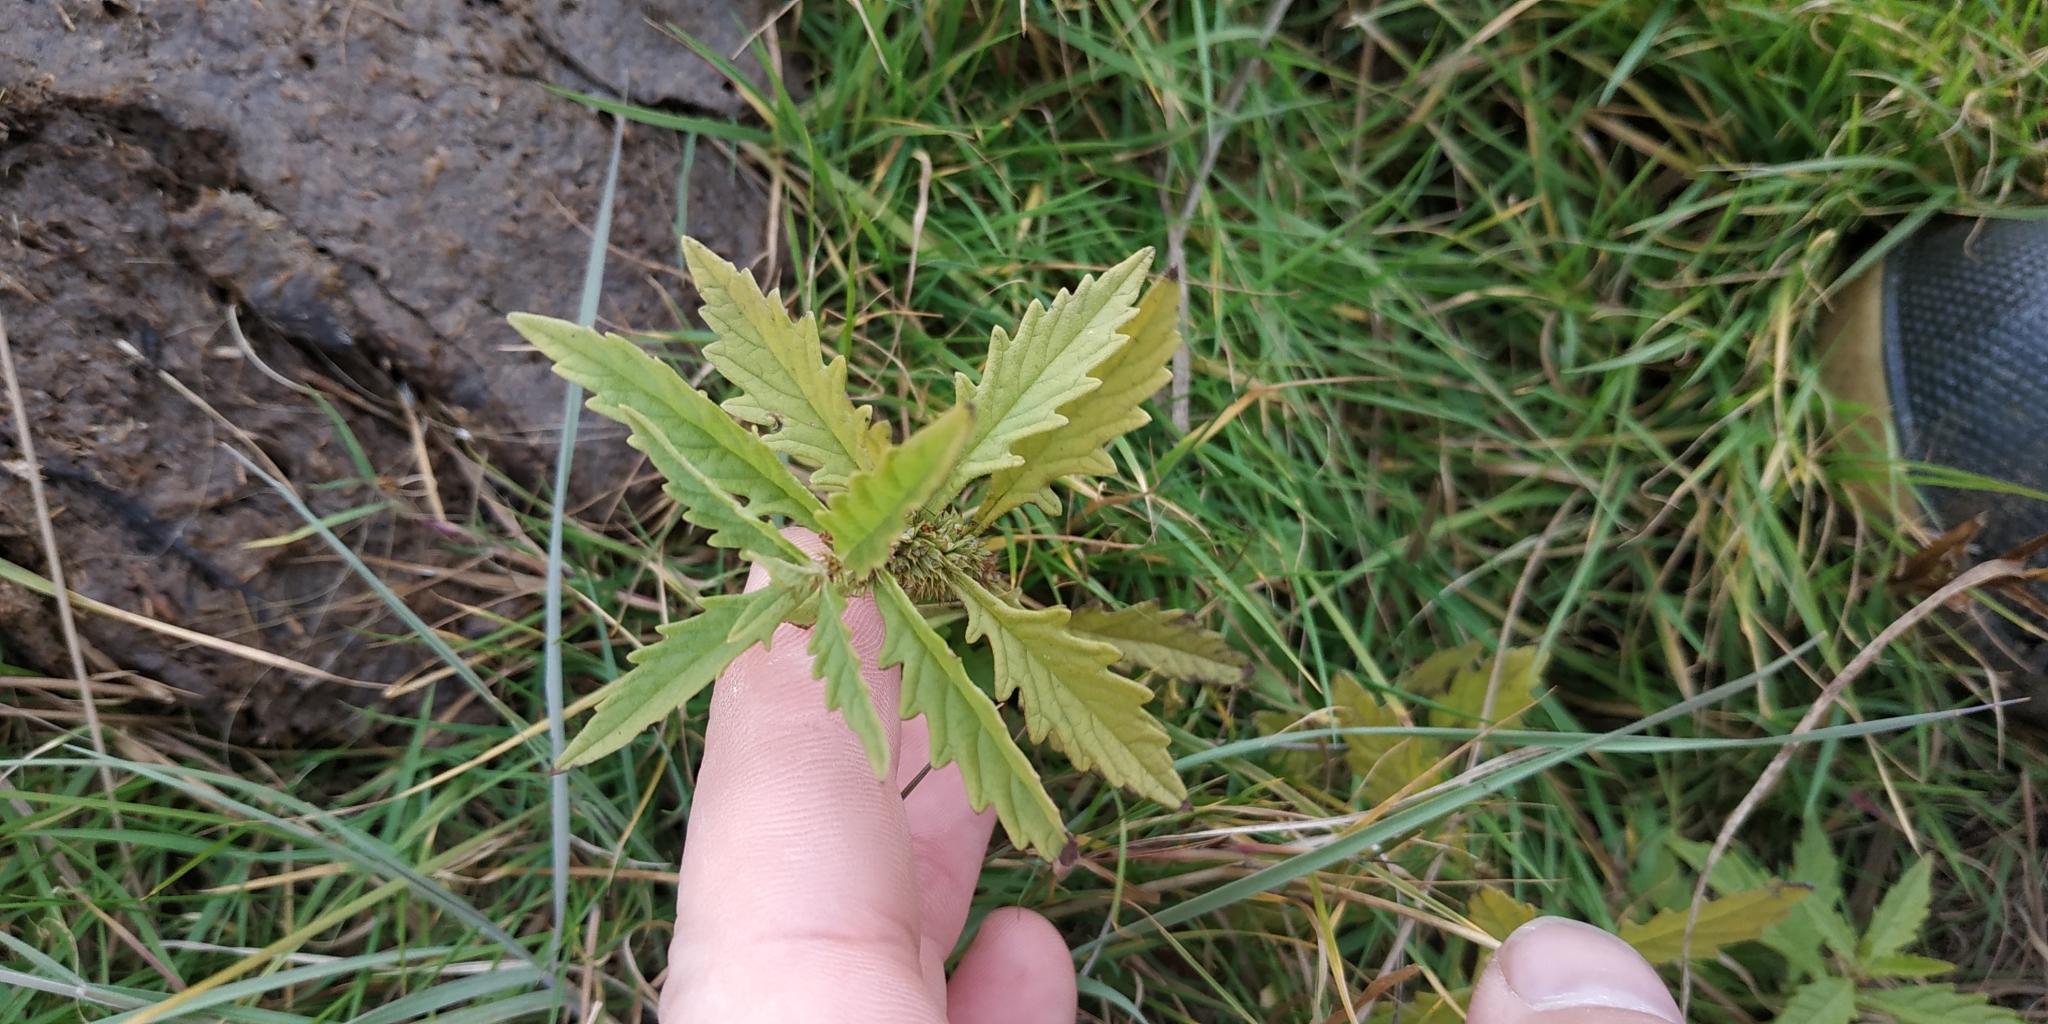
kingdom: Plantae
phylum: Tracheophyta
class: Magnoliopsida
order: Lamiales
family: Lamiaceae
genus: Lycopus
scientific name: Lycopus europaeus
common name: European bugleweed
